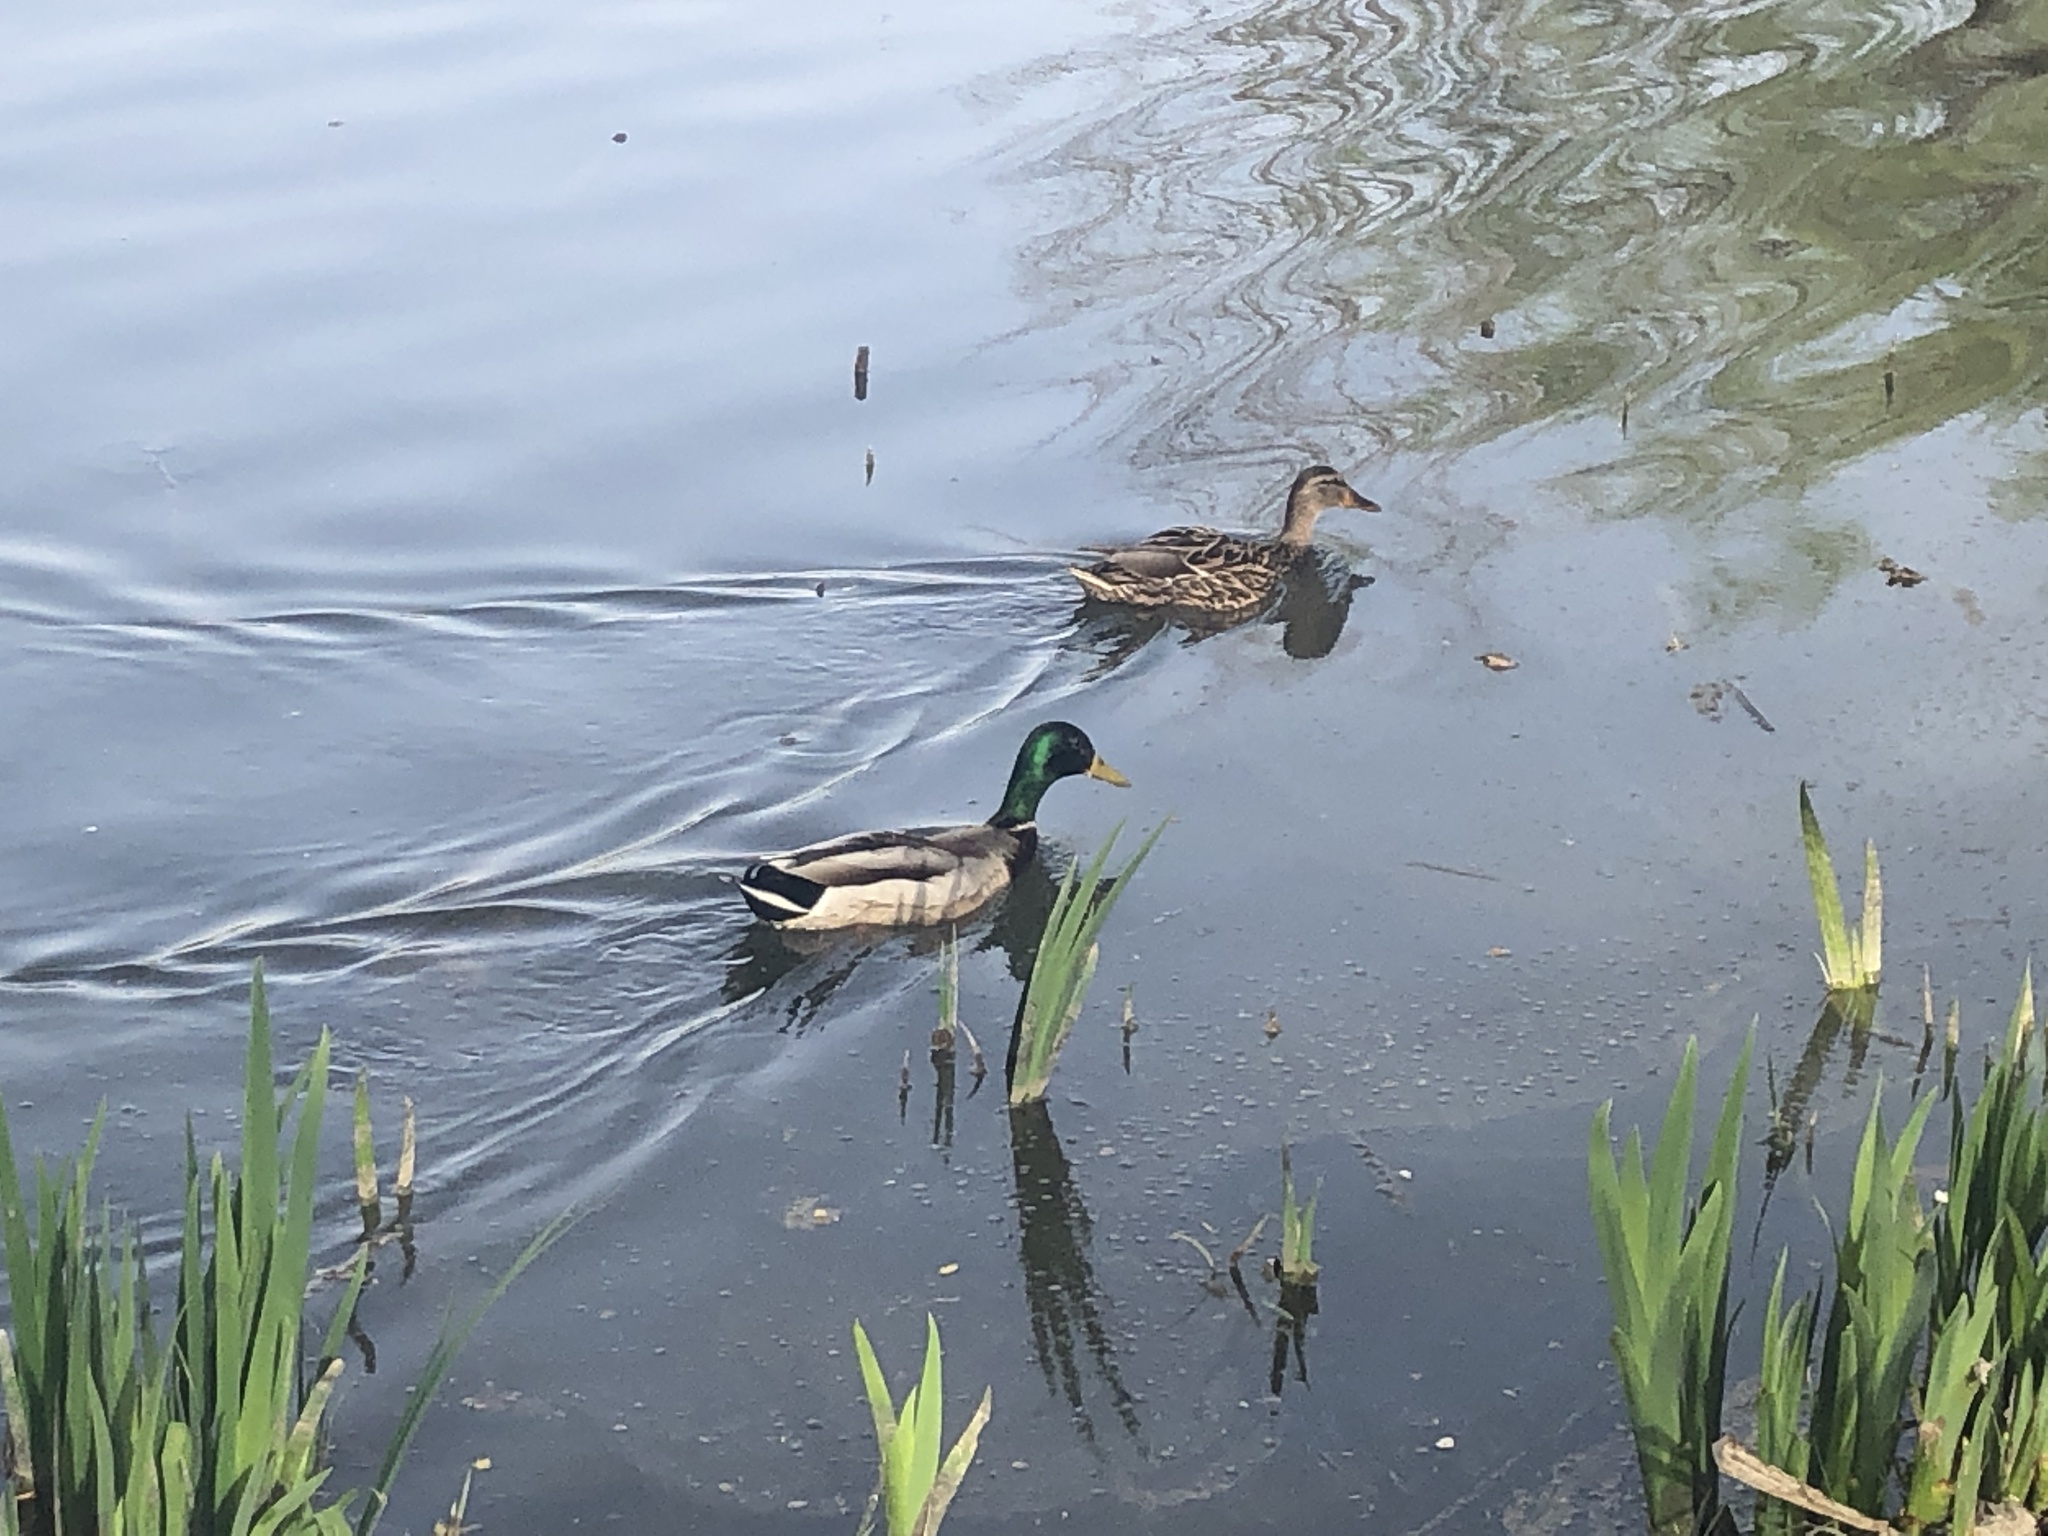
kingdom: Animalia
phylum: Chordata
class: Aves
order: Anseriformes
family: Anatidae
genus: Anas
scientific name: Anas platyrhynchos
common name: Mallard
